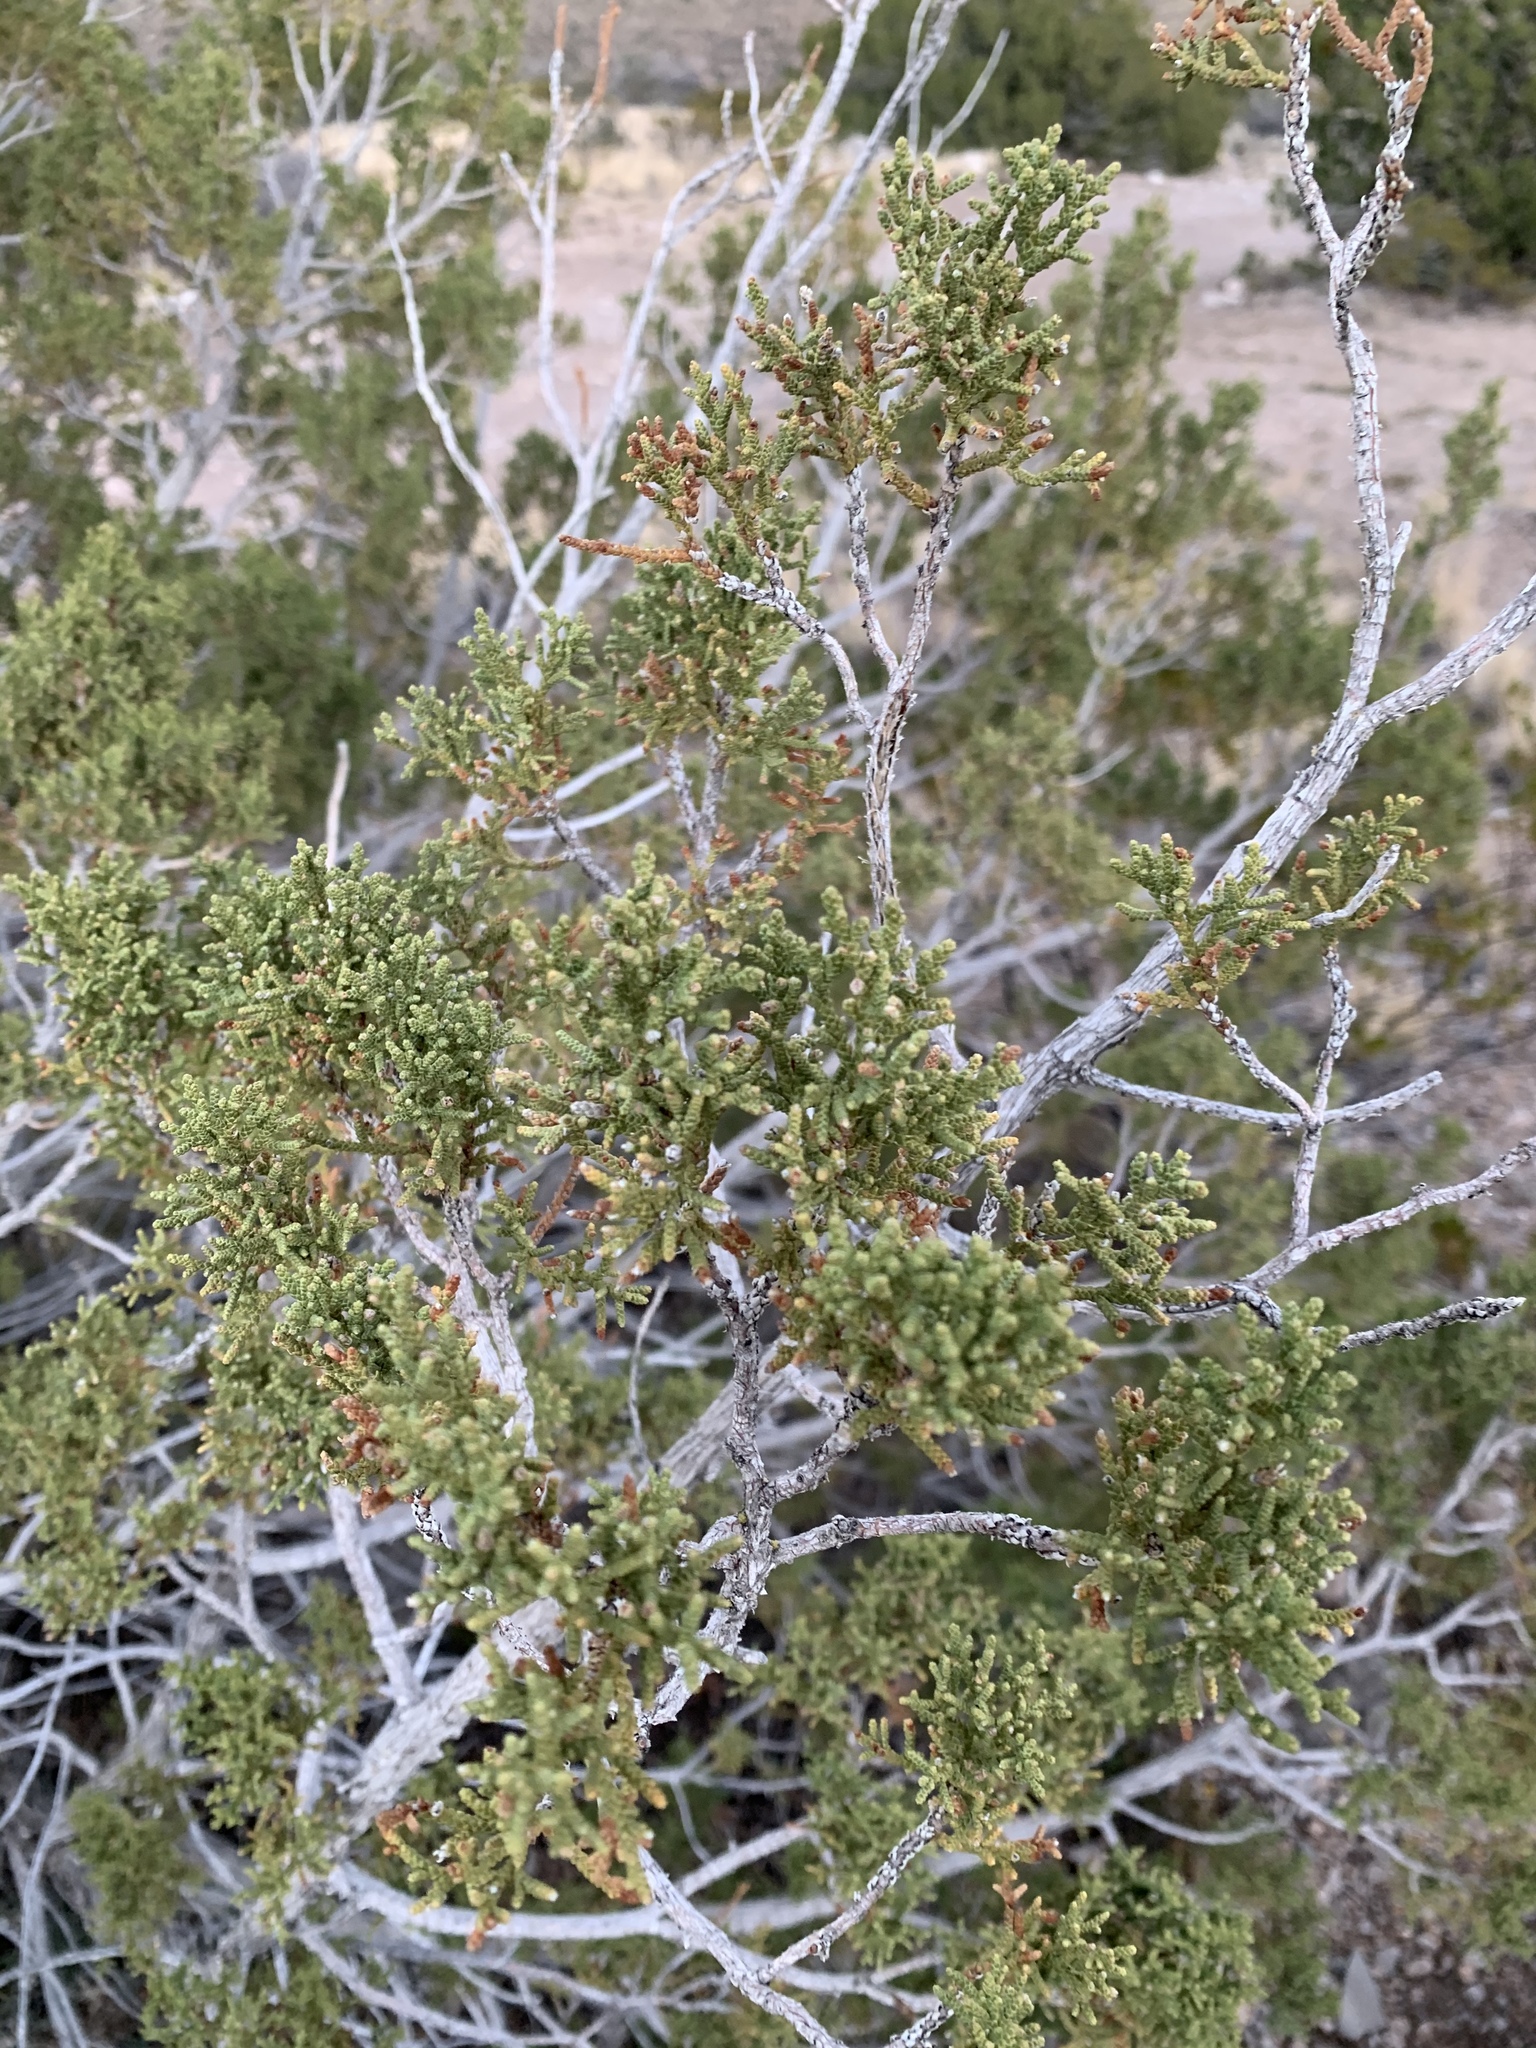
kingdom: Plantae
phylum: Tracheophyta
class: Pinopsida
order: Pinales
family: Cupressaceae
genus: Juniperus
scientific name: Juniperus monosperma
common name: One-seed juniper
